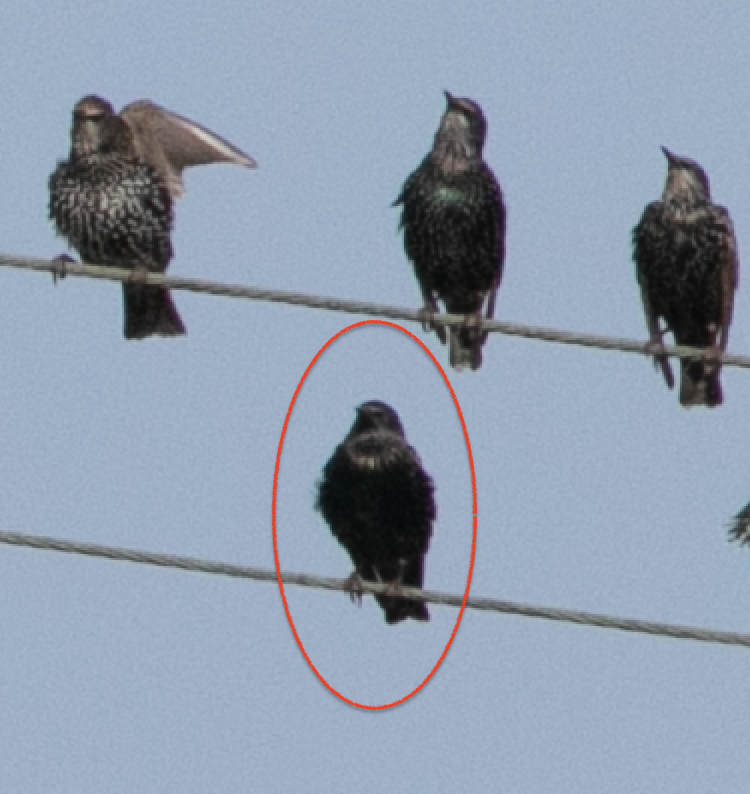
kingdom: Animalia
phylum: Chordata
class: Aves
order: Passeriformes
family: Sturnidae
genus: Sturnus
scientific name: Sturnus vulgaris
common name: Common starling
